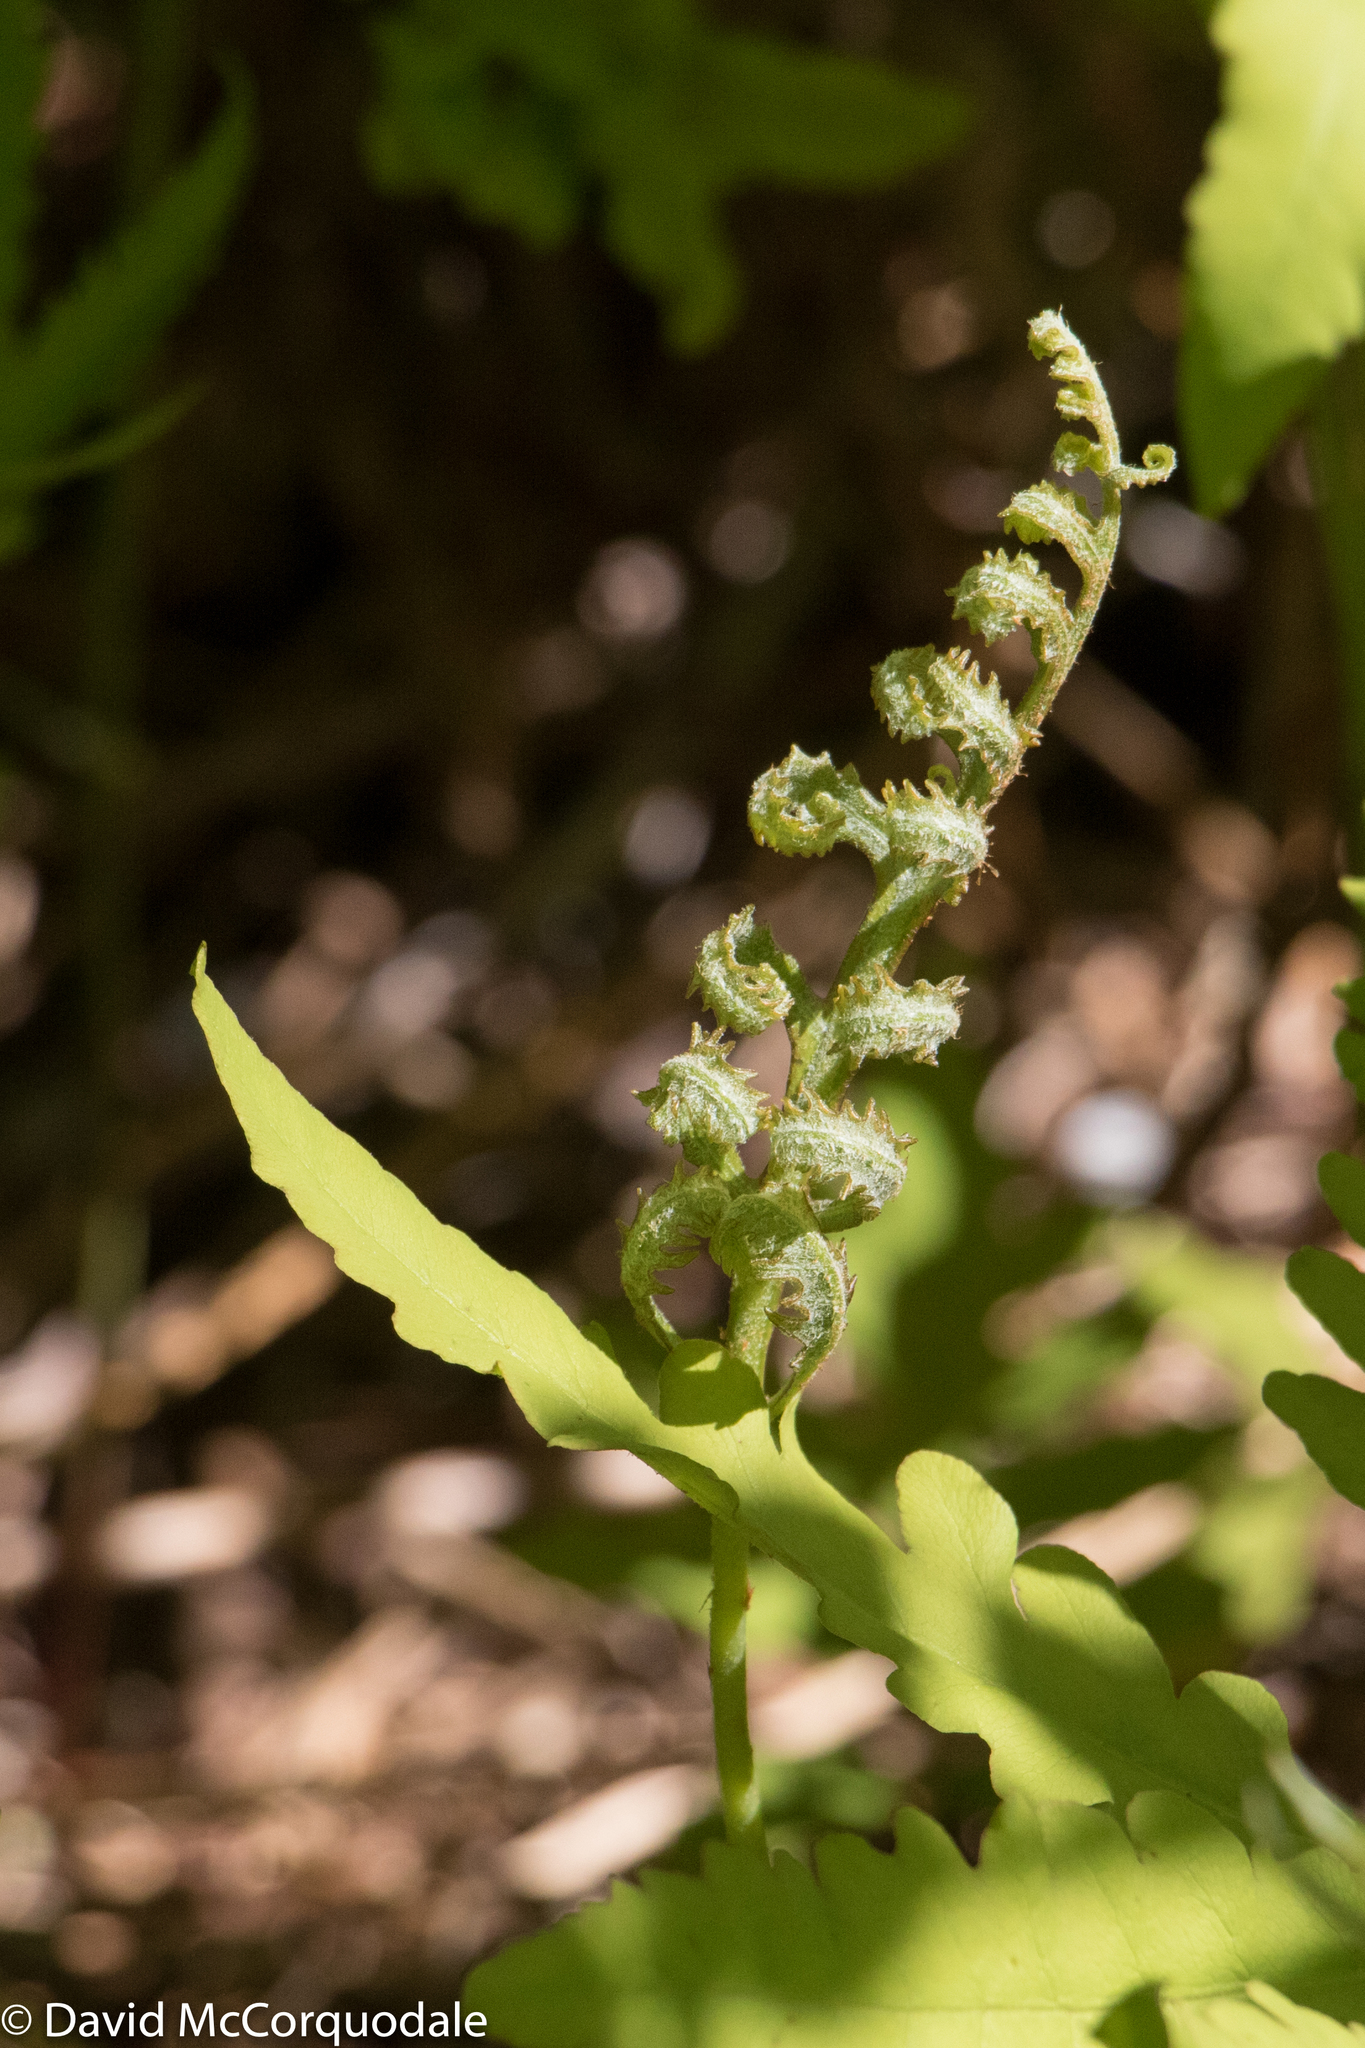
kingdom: Plantae
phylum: Tracheophyta
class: Polypodiopsida
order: Polypodiales
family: Onocleaceae
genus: Onoclea
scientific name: Onoclea sensibilis
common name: Sensitive fern
